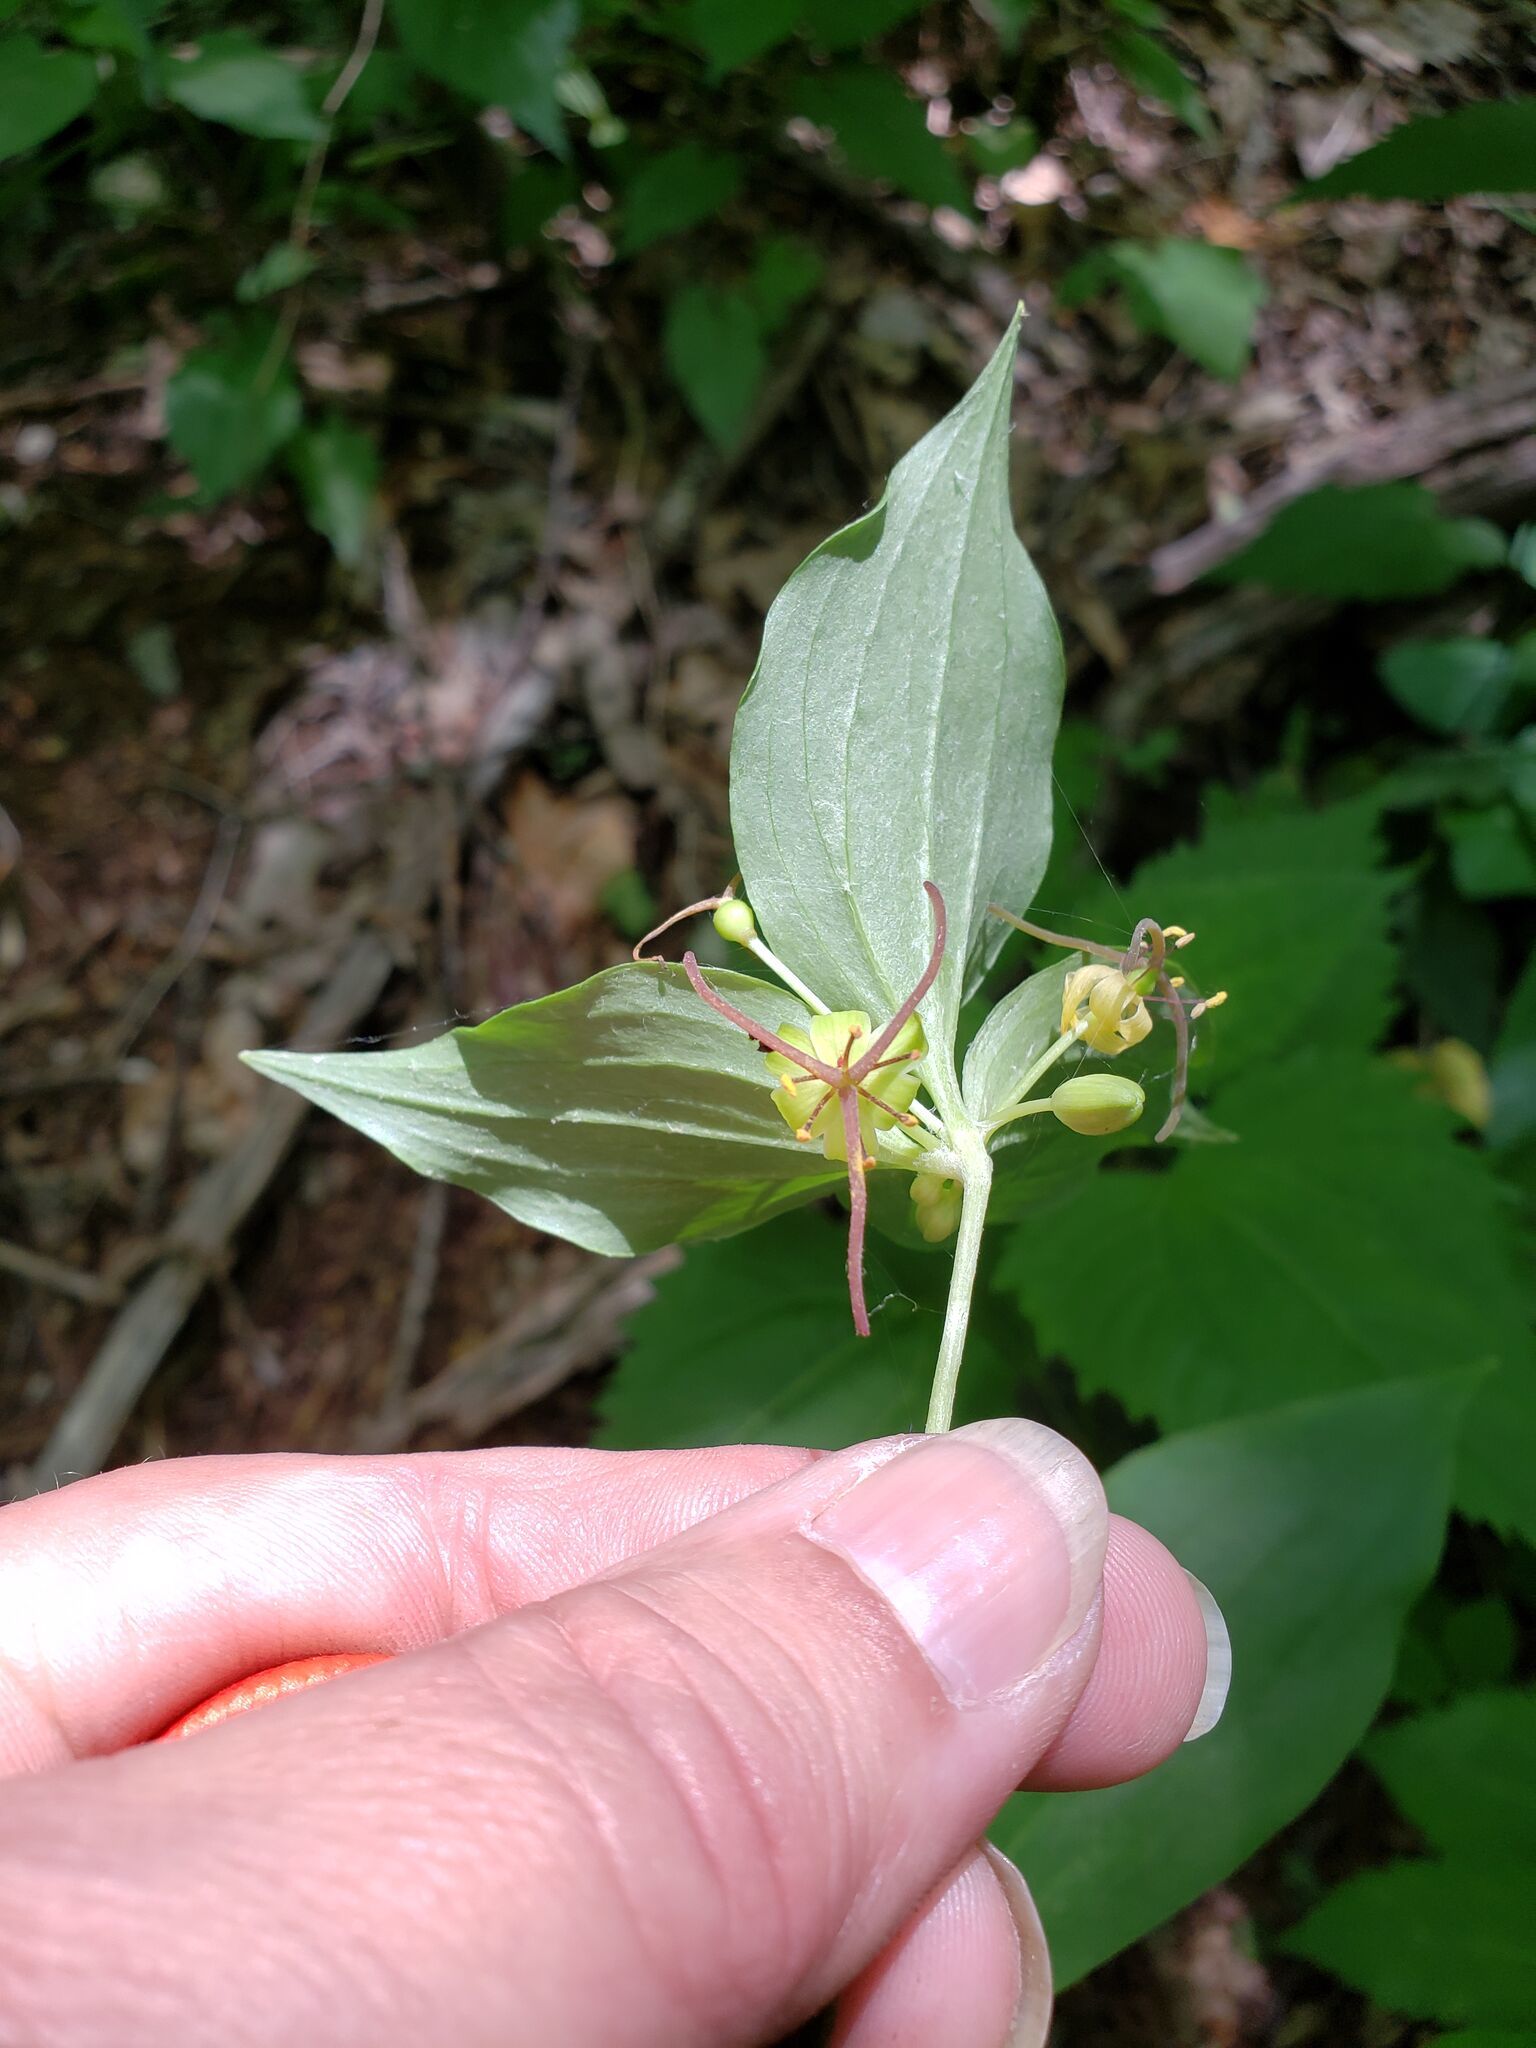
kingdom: Plantae
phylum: Tracheophyta
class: Liliopsida
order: Liliales
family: Liliaceae
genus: Medeola
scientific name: Medeola virginiana
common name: Indian cucumber-root
